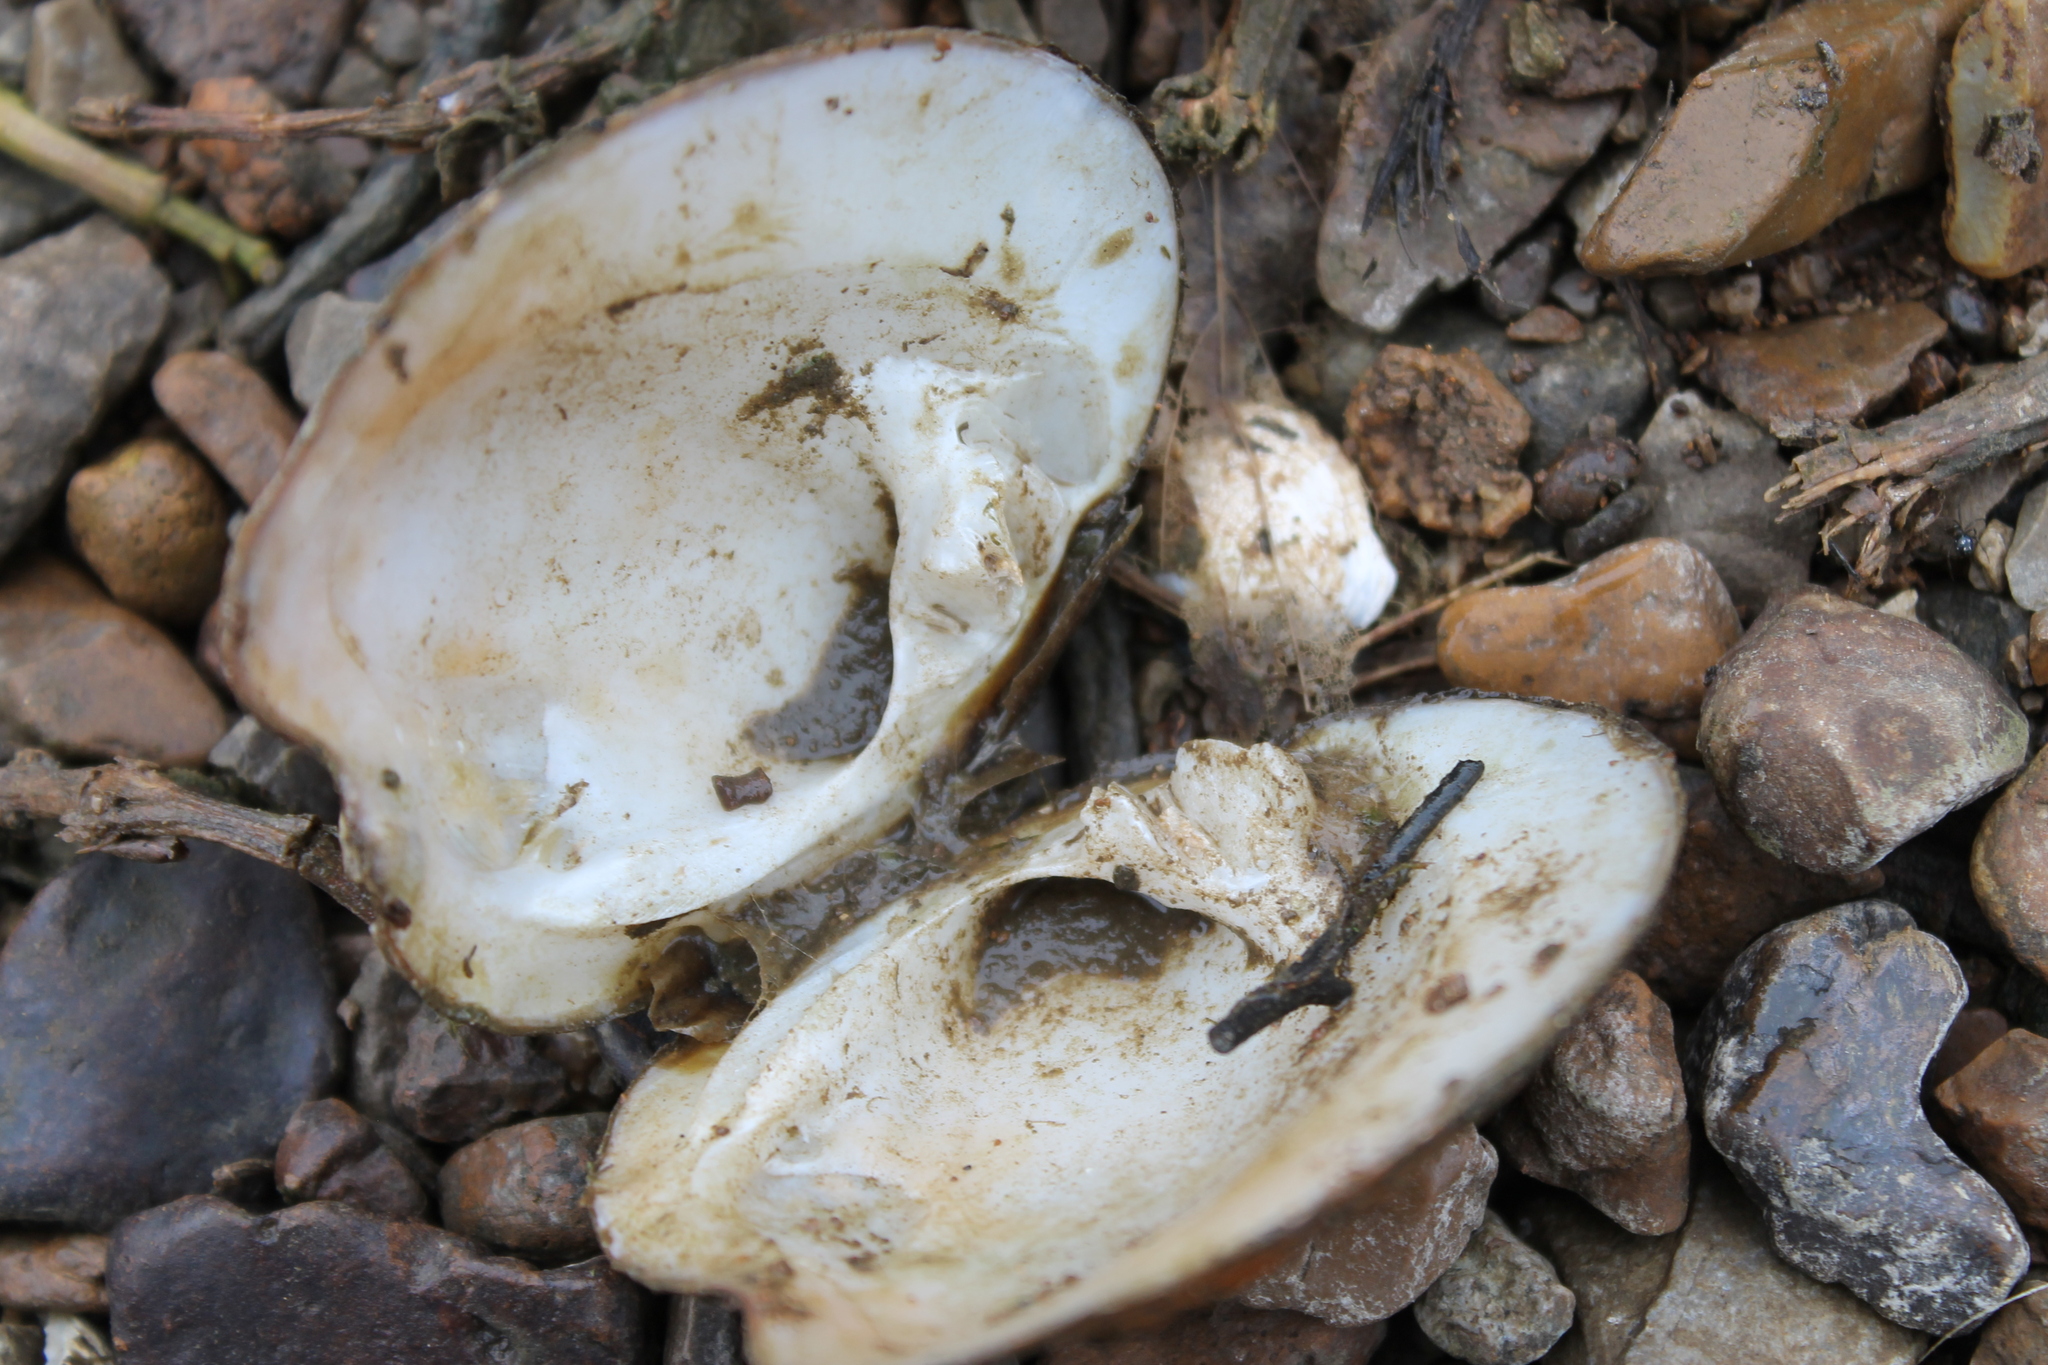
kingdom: Animalia
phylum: Mollusca
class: Bivalvia
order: Unionida
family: Unionidae
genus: Theliderma
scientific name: Theliderma intermedia
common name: Cumberland monkeyface
